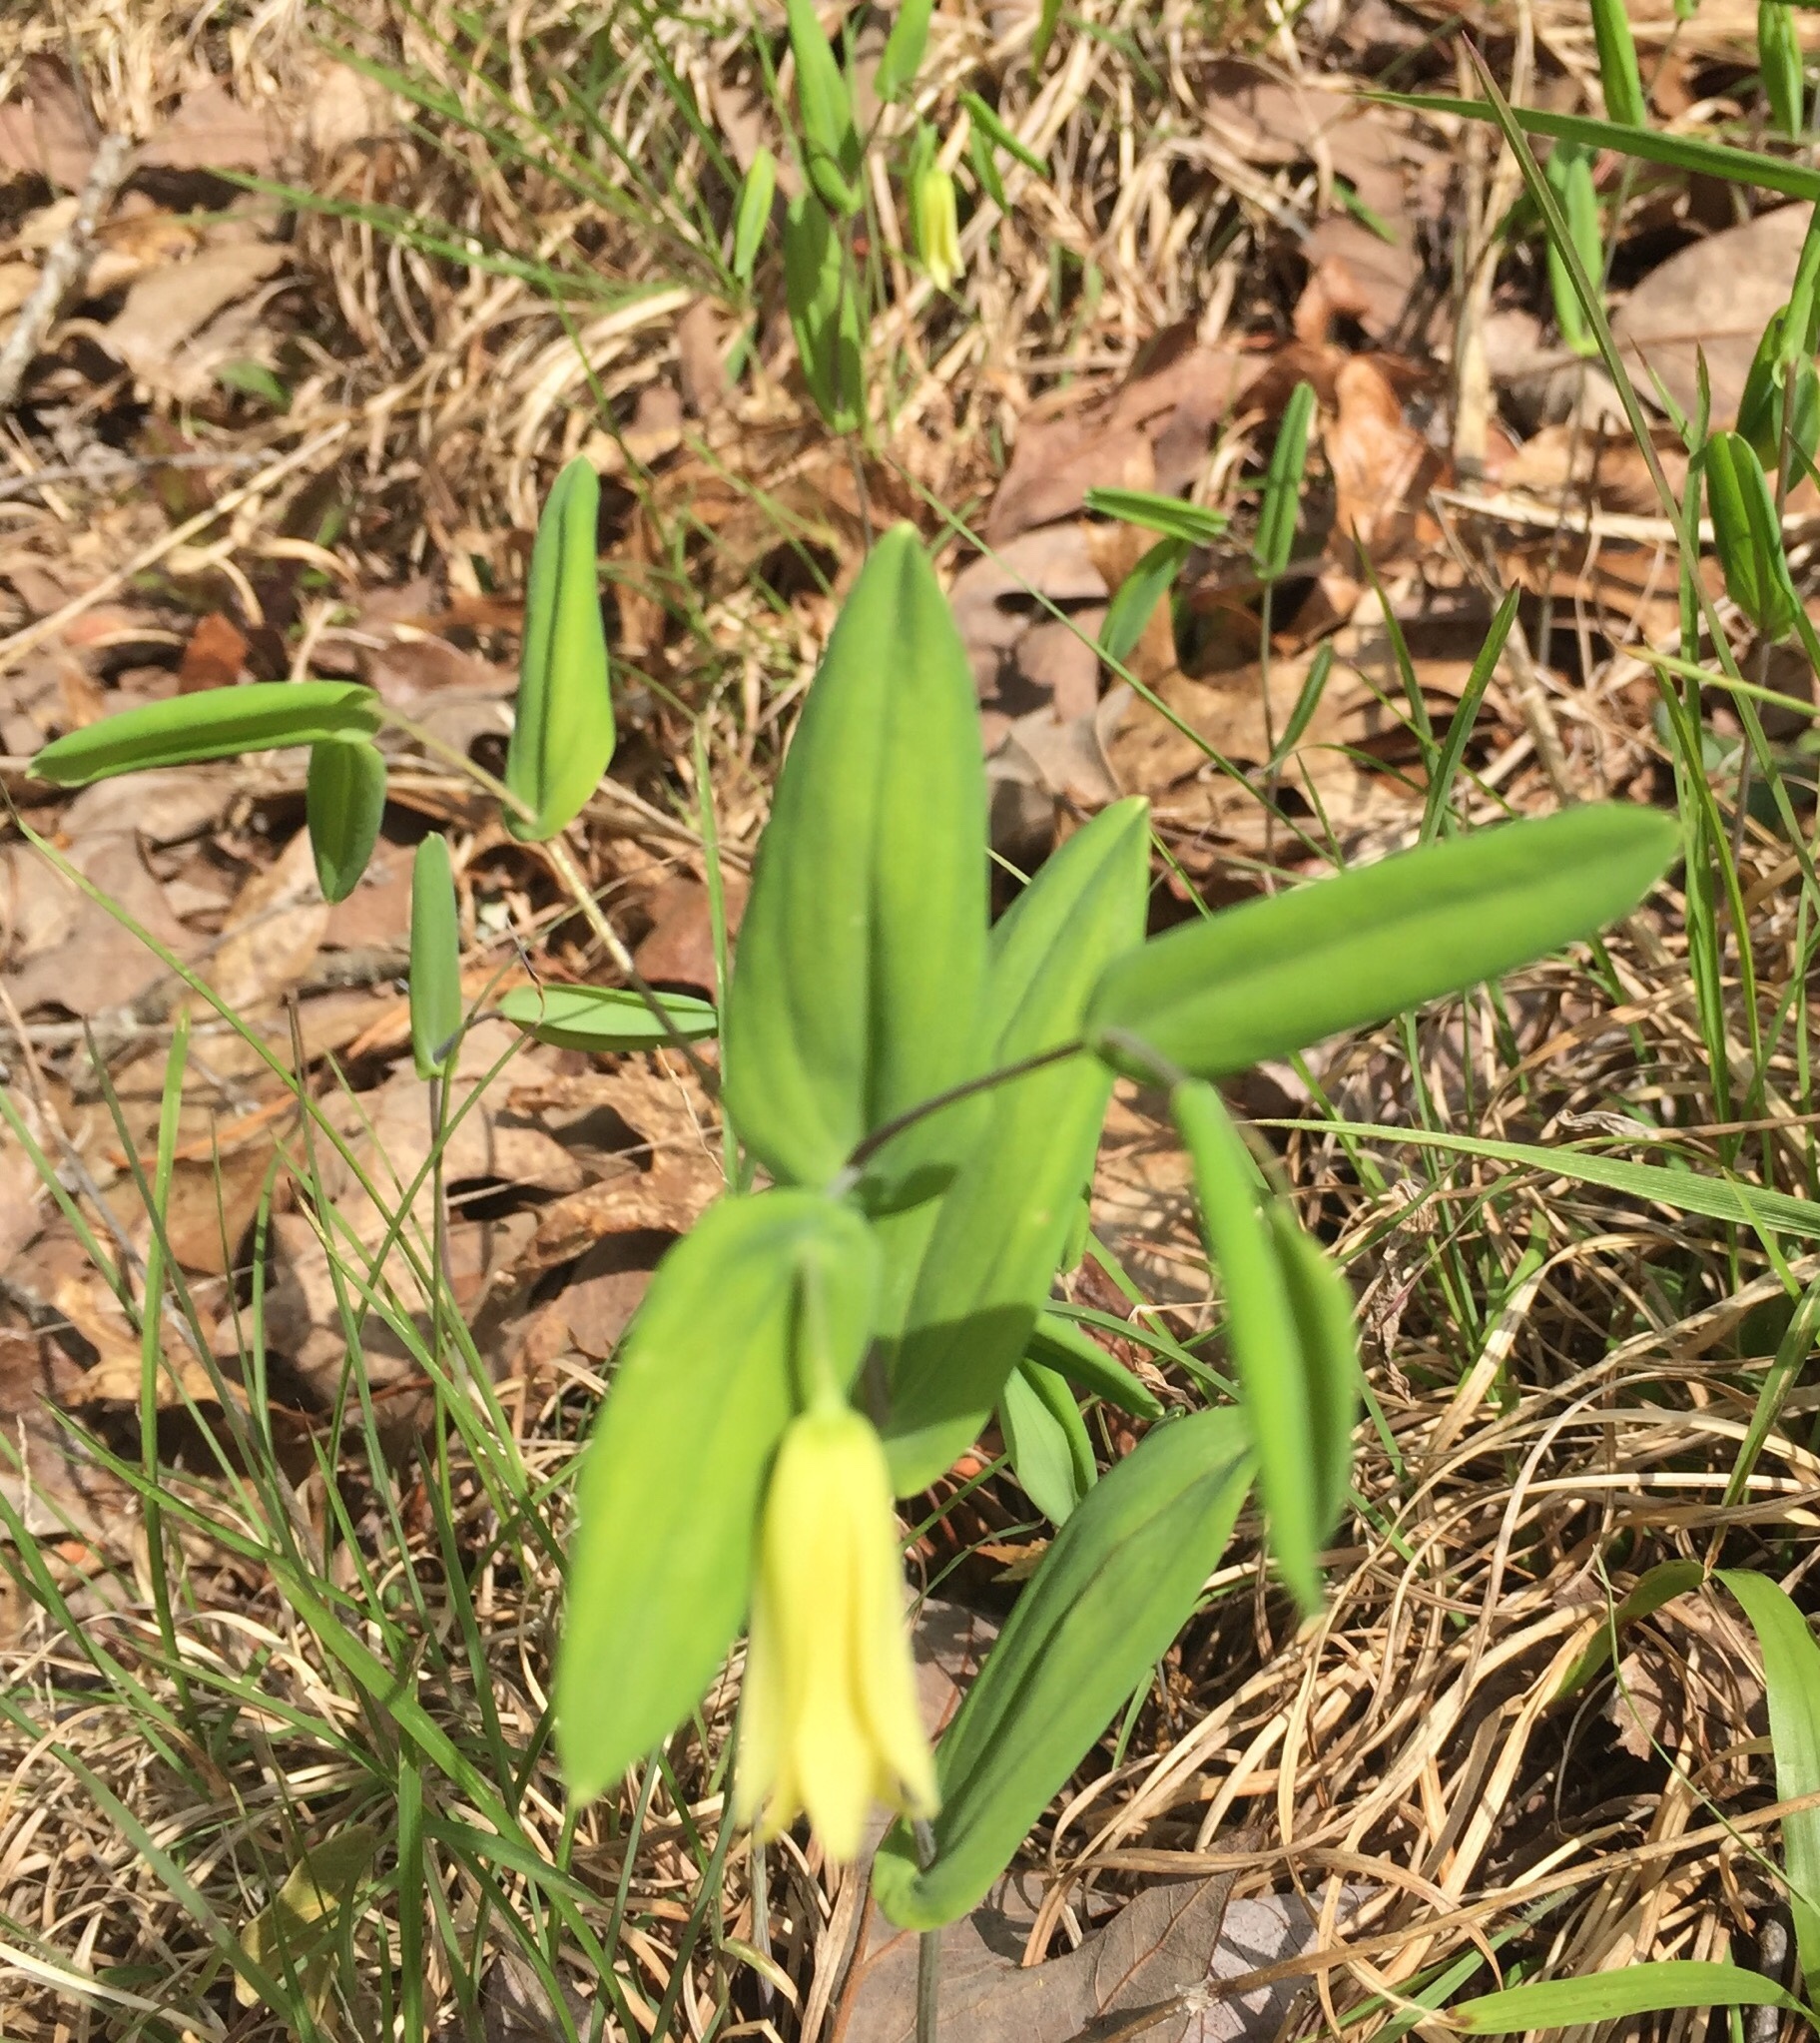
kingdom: Plantae
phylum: Tracheophyta
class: Liliopsida
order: Liliales
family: Colchicaceae
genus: Uvularia
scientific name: Uvularia perfoliata
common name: Perfoliate bellwort
